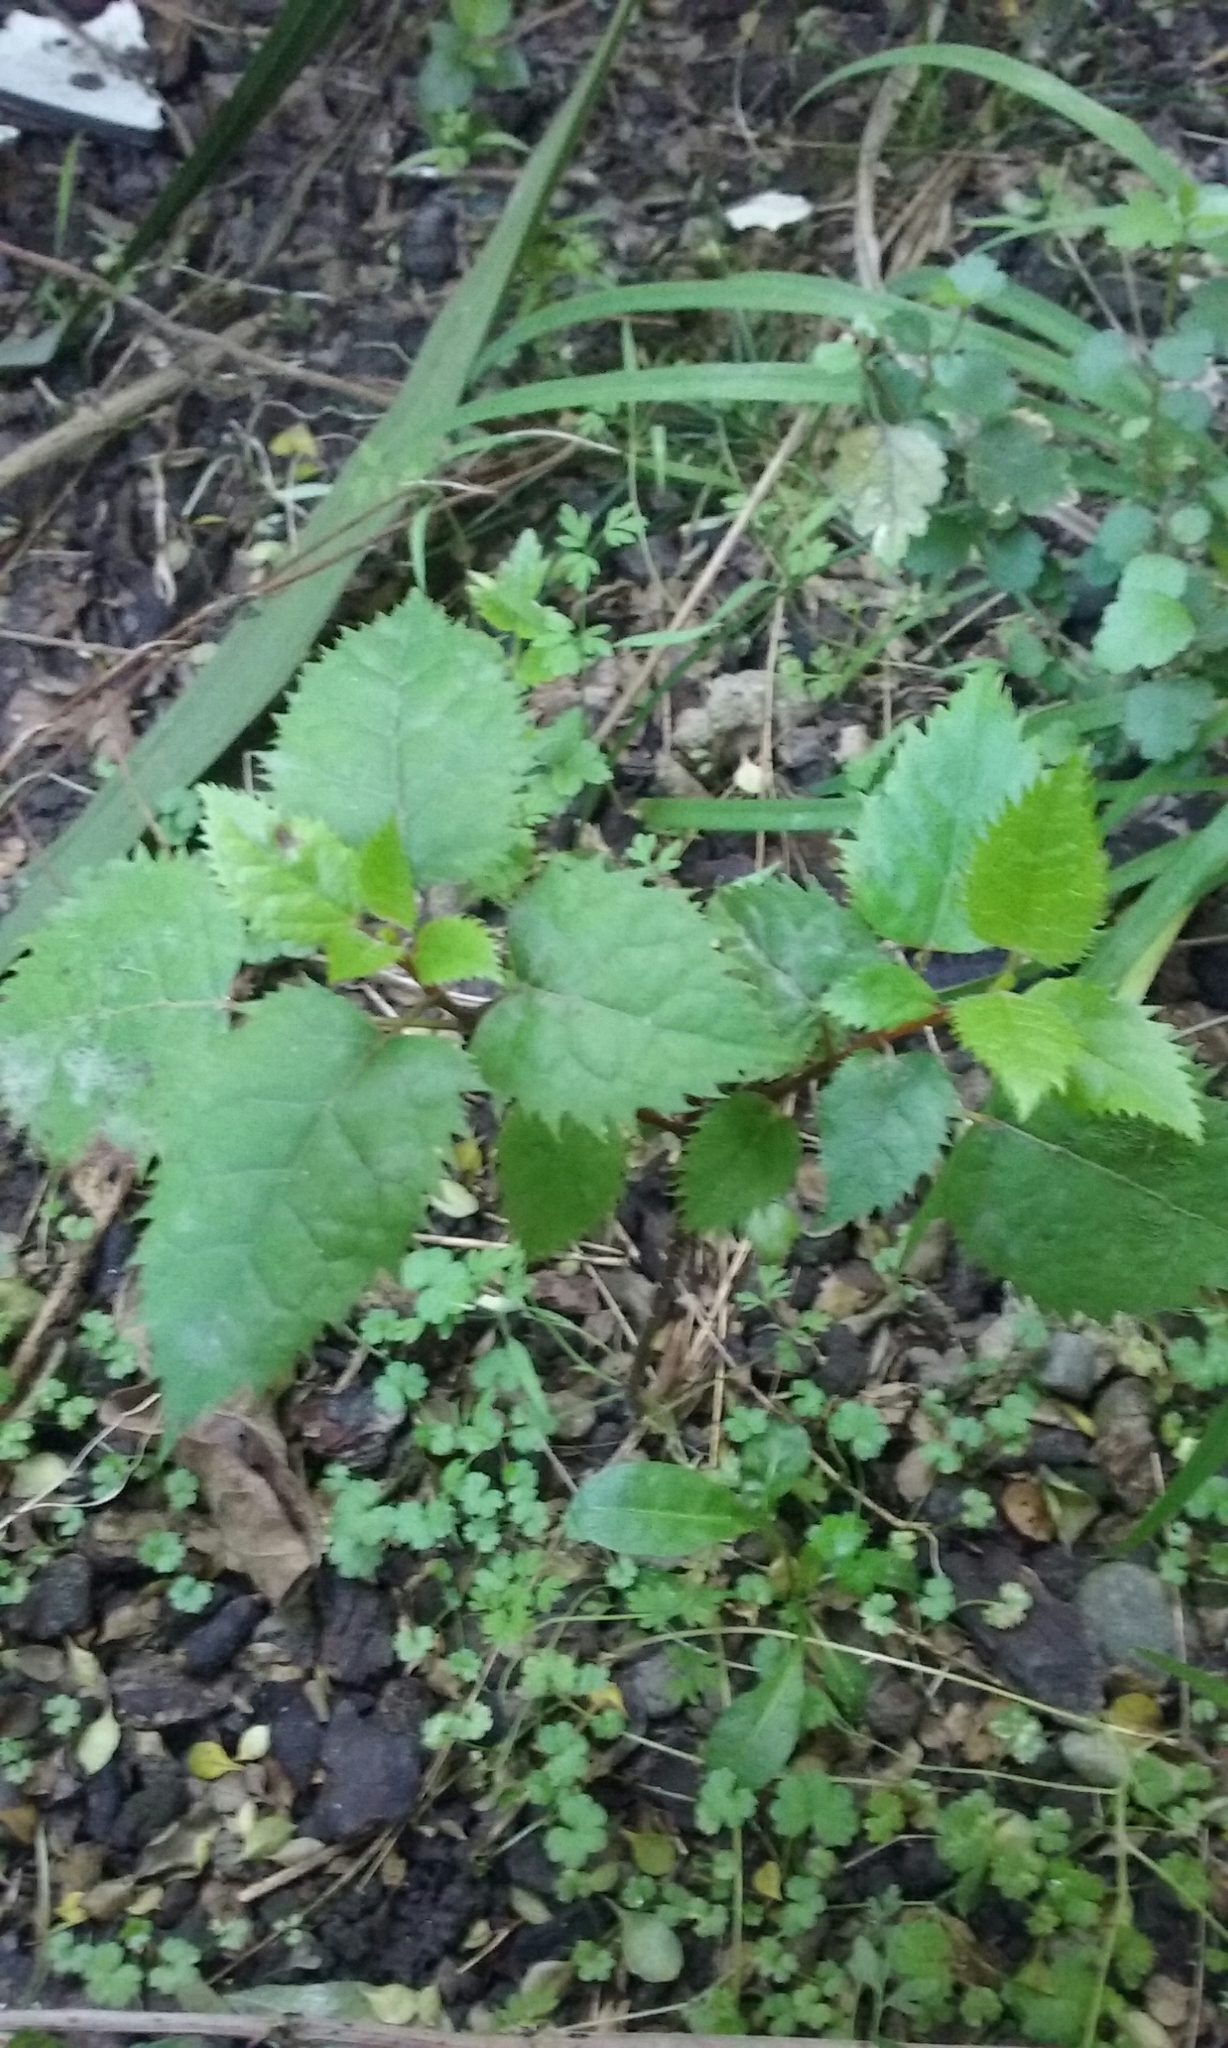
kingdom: Plantae
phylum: Tracheophyta
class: Magnoliopsida
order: Oxalidales
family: Elaeocarpaceae
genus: Aristotelia
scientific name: Aristotelia serrata
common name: New zealand wineberry
